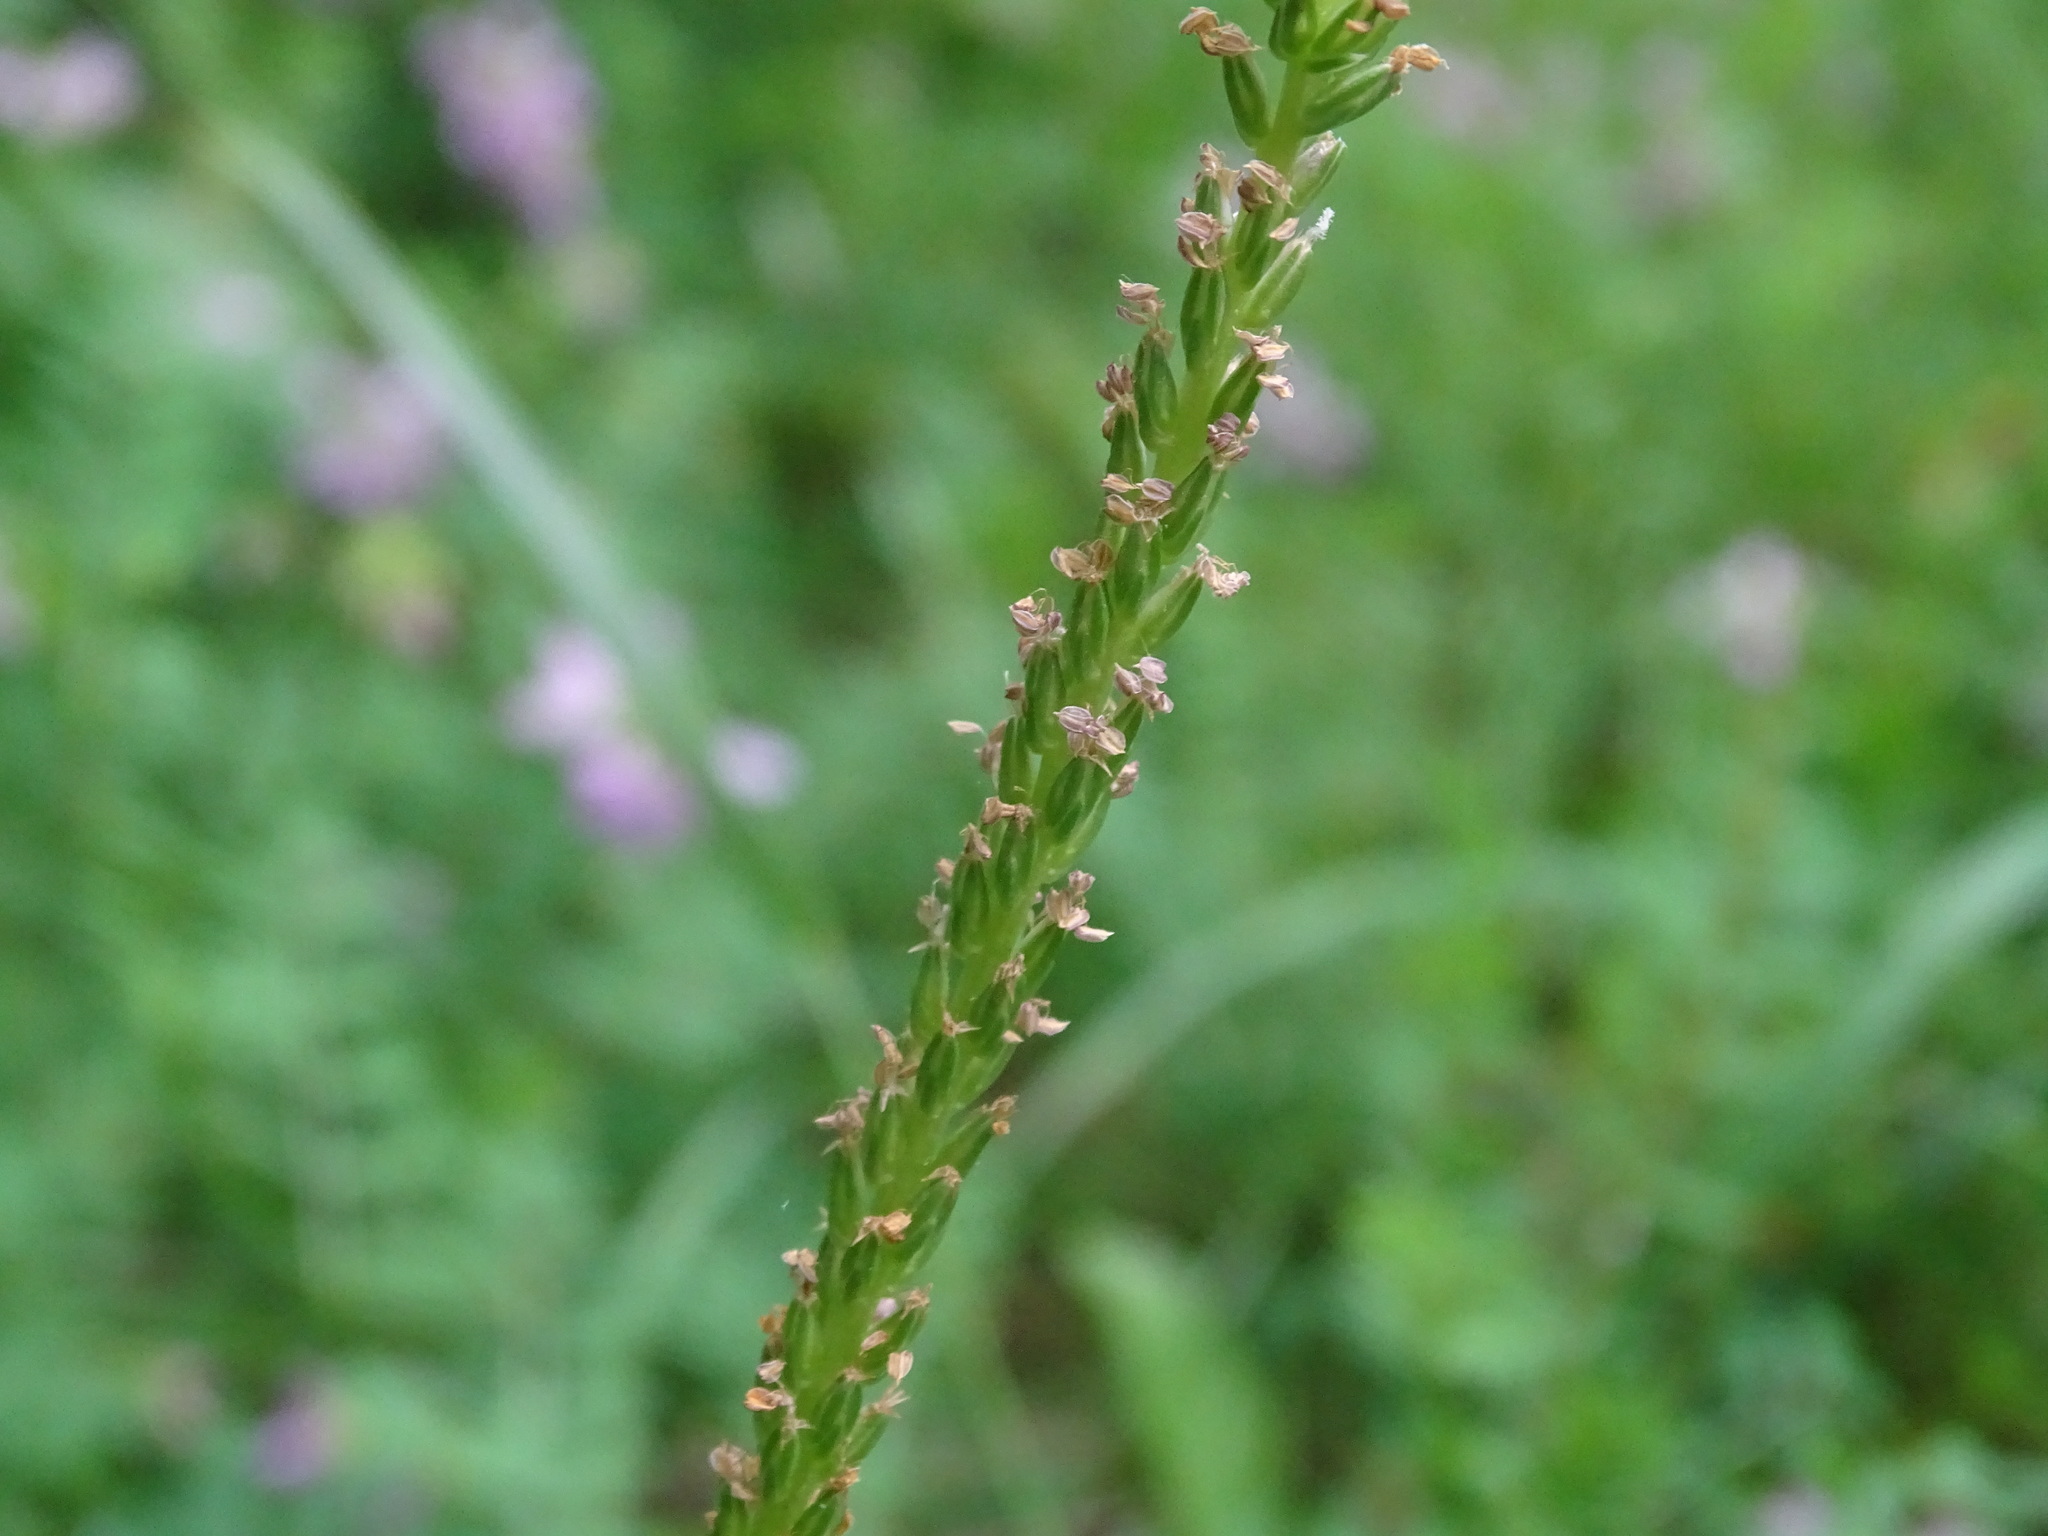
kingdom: Plantae
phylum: Tracheophyta
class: Magnoliopsida
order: Lamiales
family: Plantaginaceae
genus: Plantago
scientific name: Plantago rugelii
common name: American plantain
